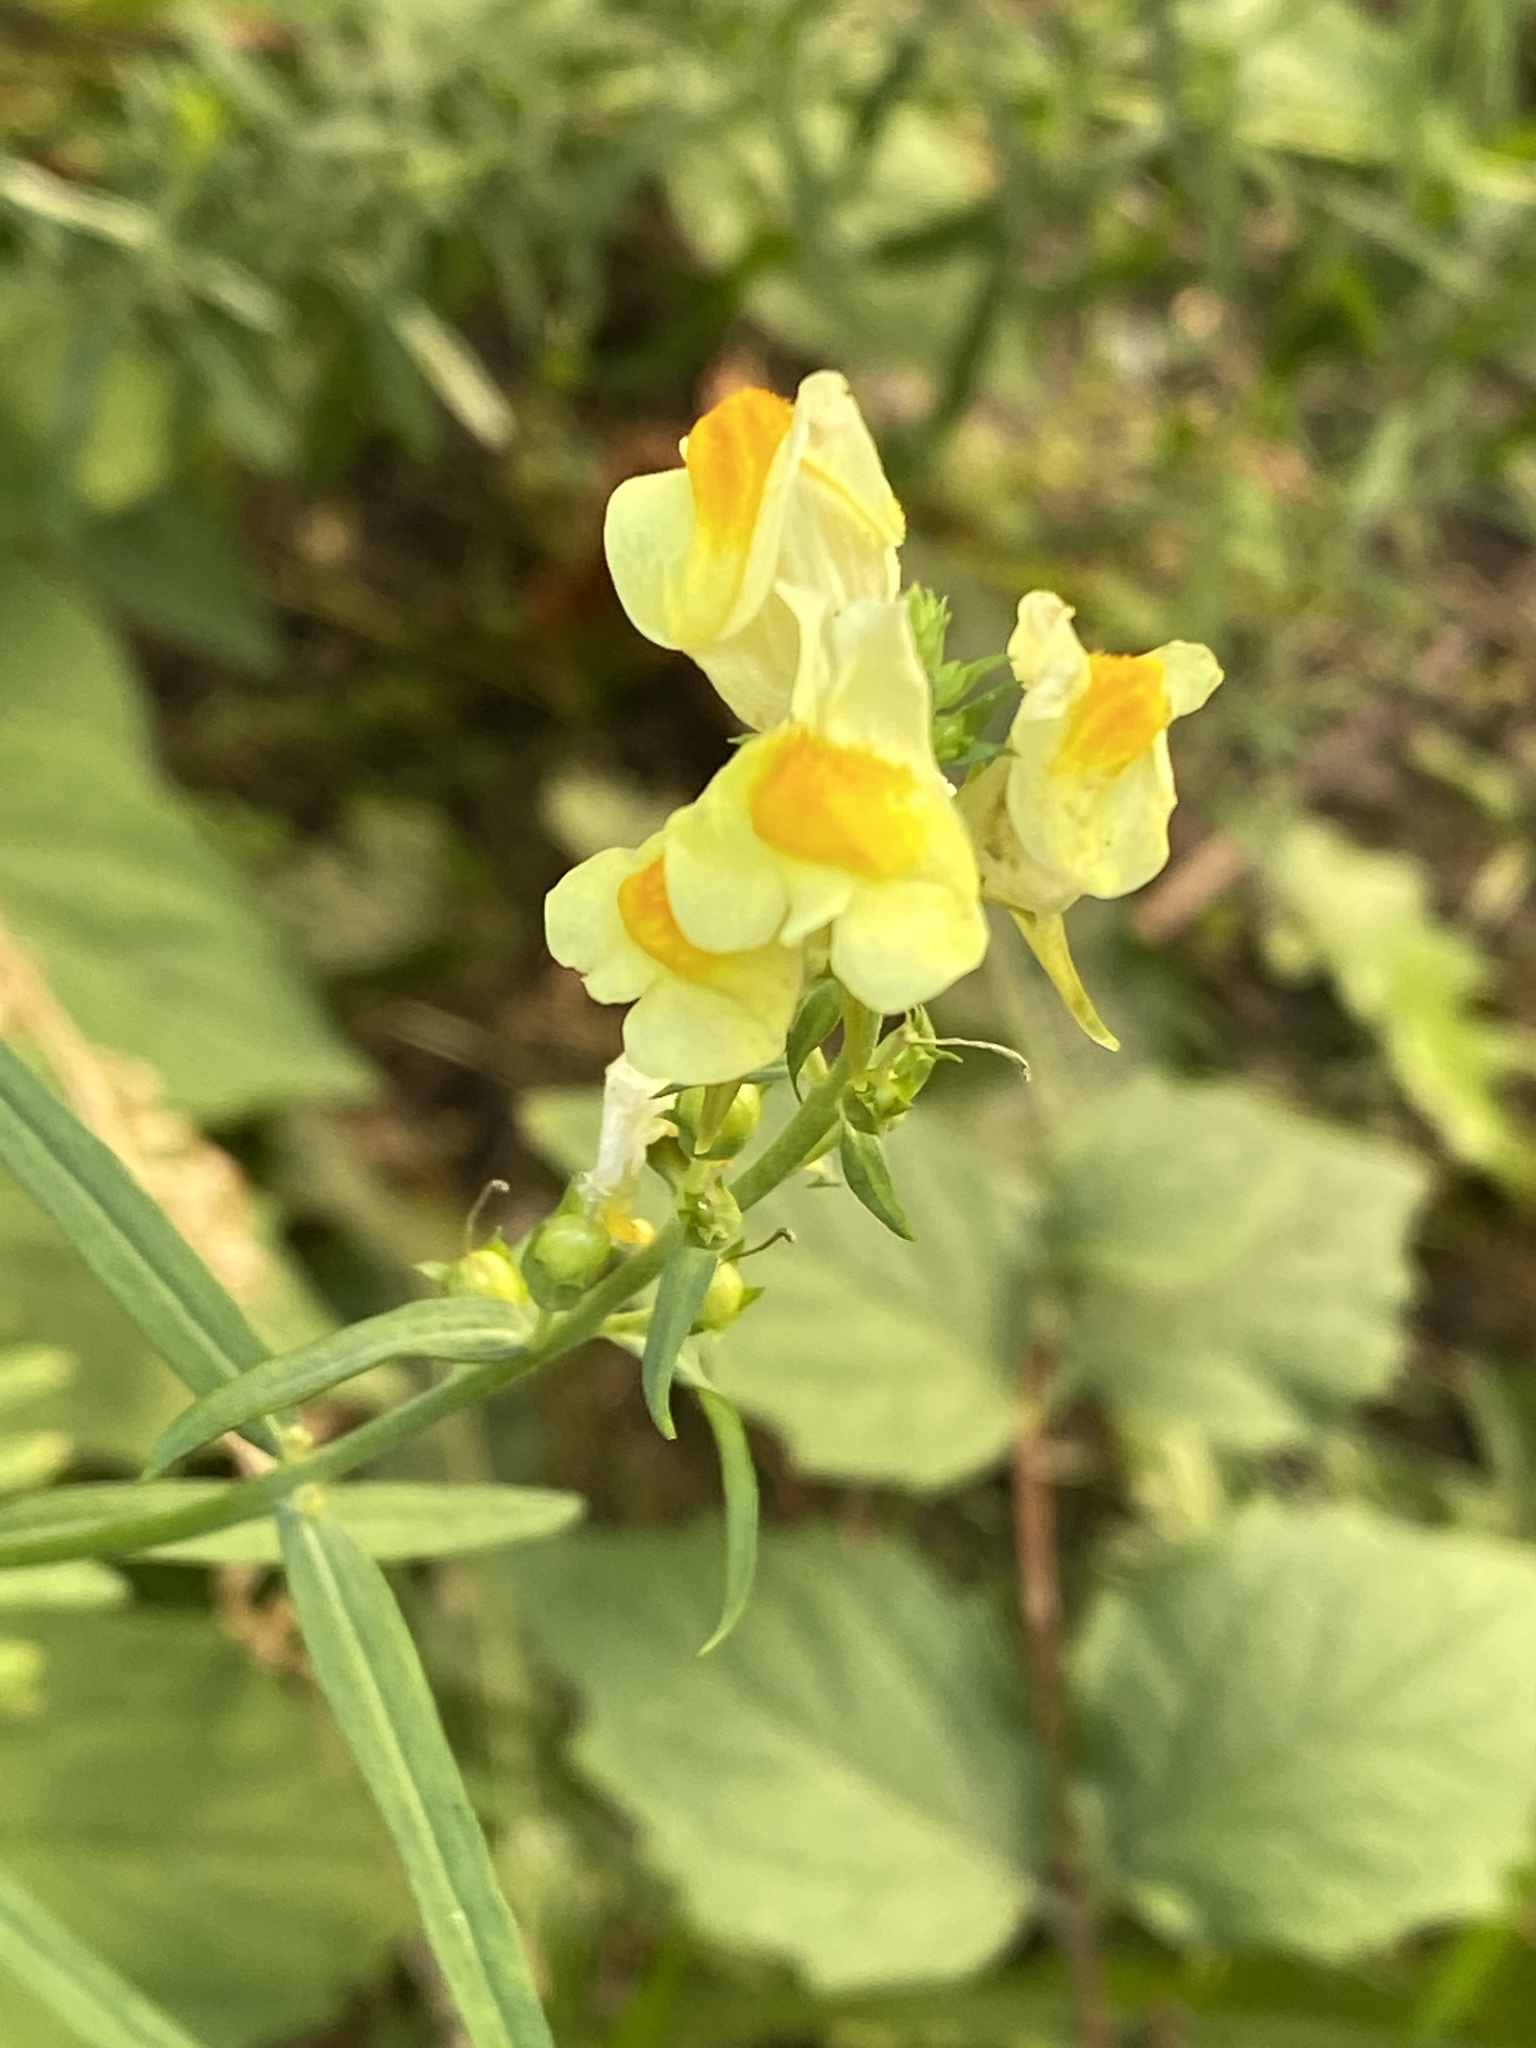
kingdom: Plantae
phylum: Tracheophyta
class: Magnoliopsida
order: Lamiales
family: Plantaginaceae
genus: Linaria
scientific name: Linaria vulgaris
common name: Butter and eggs
